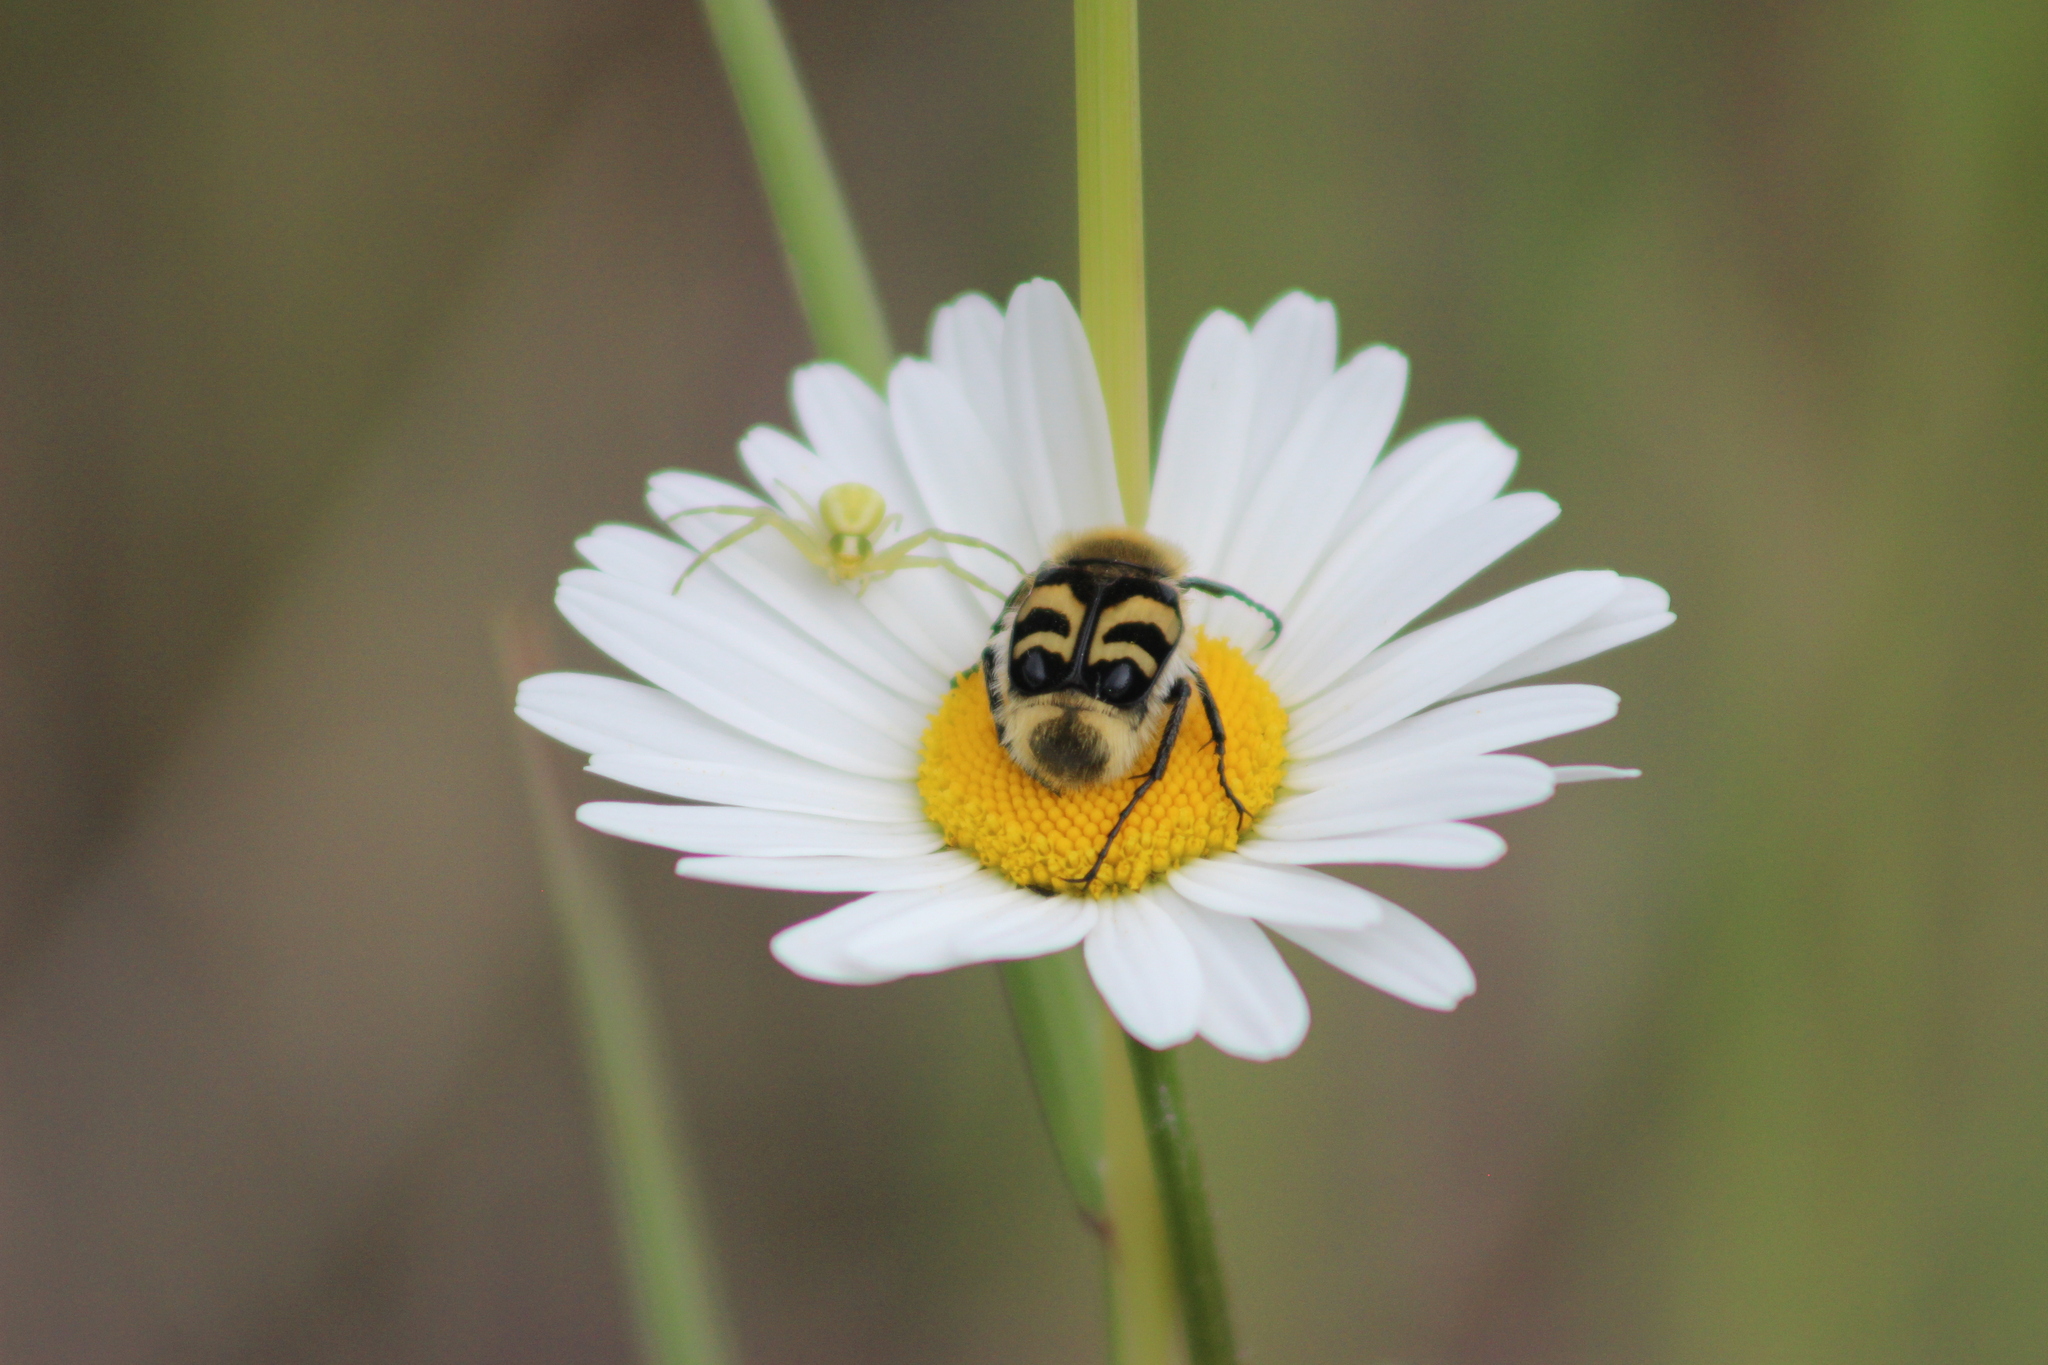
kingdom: Animalia
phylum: Arthropoda
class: Insecta
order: Coleoptera
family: Scarabaeidae
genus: Trichius
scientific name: Trichius fasciatus
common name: Bee beetle
